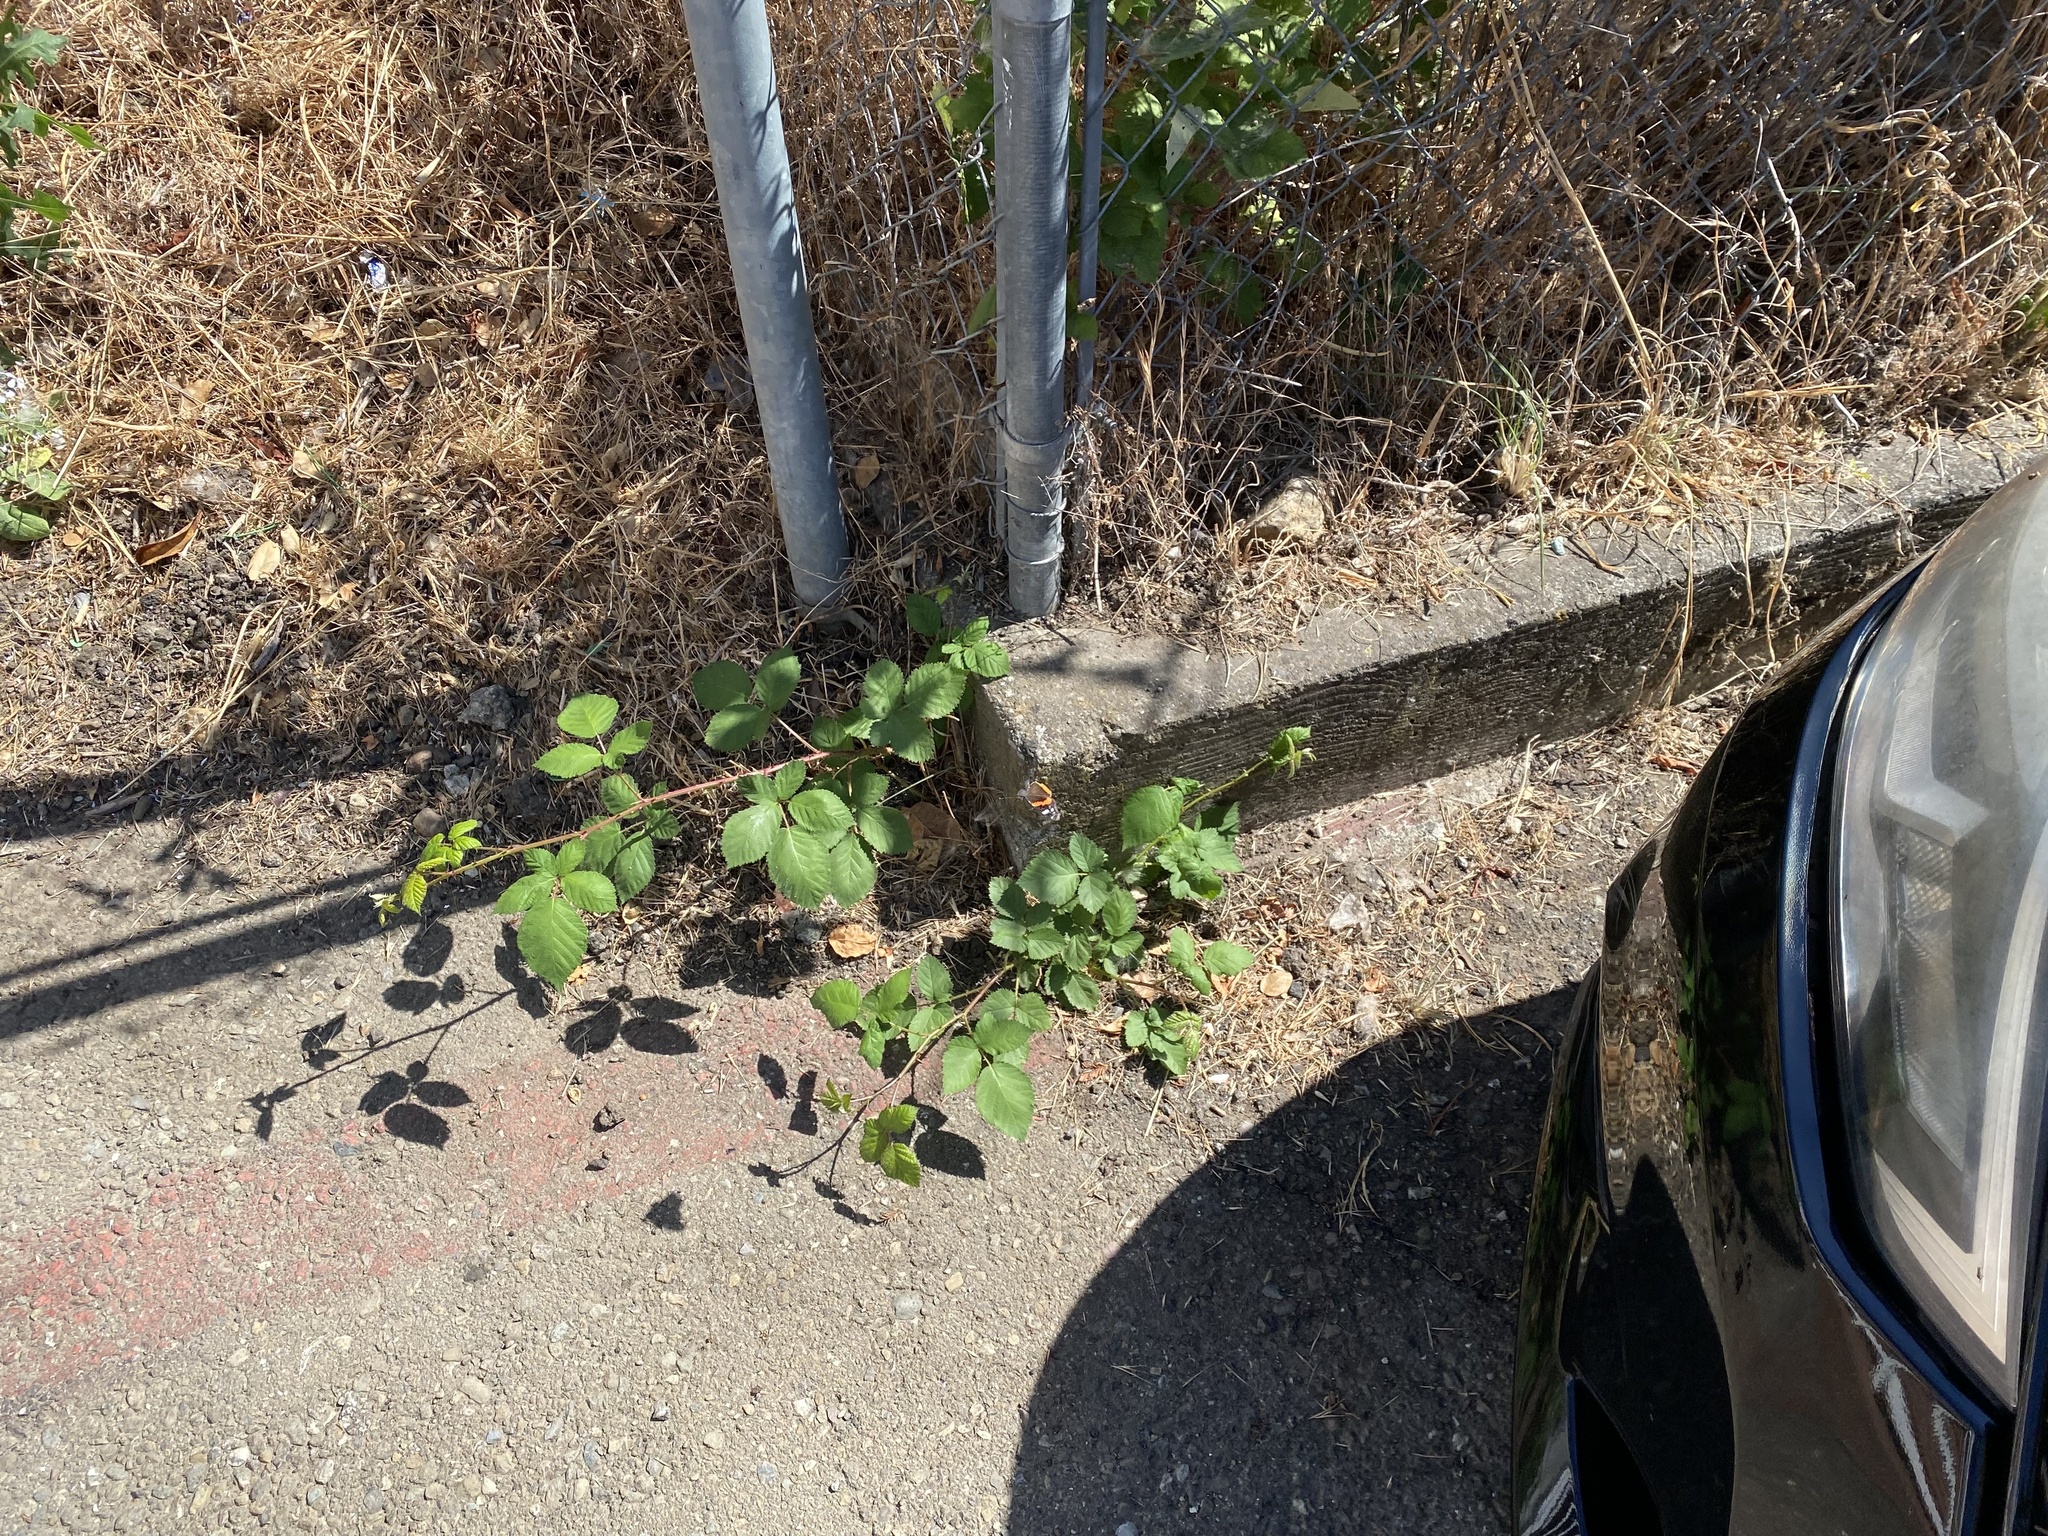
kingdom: Animalia
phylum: Arthropoda
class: Insecta
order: Lepidoptera
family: Nymphalidae
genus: Vanessa
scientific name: Vanessa atalanta
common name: Red admiral
